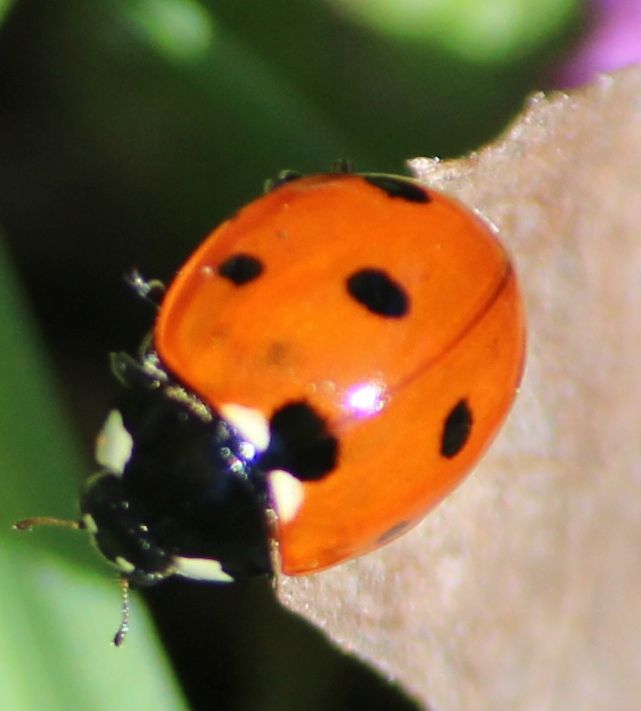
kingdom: Animalia
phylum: Arthropoda
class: Insecta
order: Coleoptera
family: Coccinellidae
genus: Coccinella
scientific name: Coccinella septempunctata
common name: Sevenspotted lady beetle
